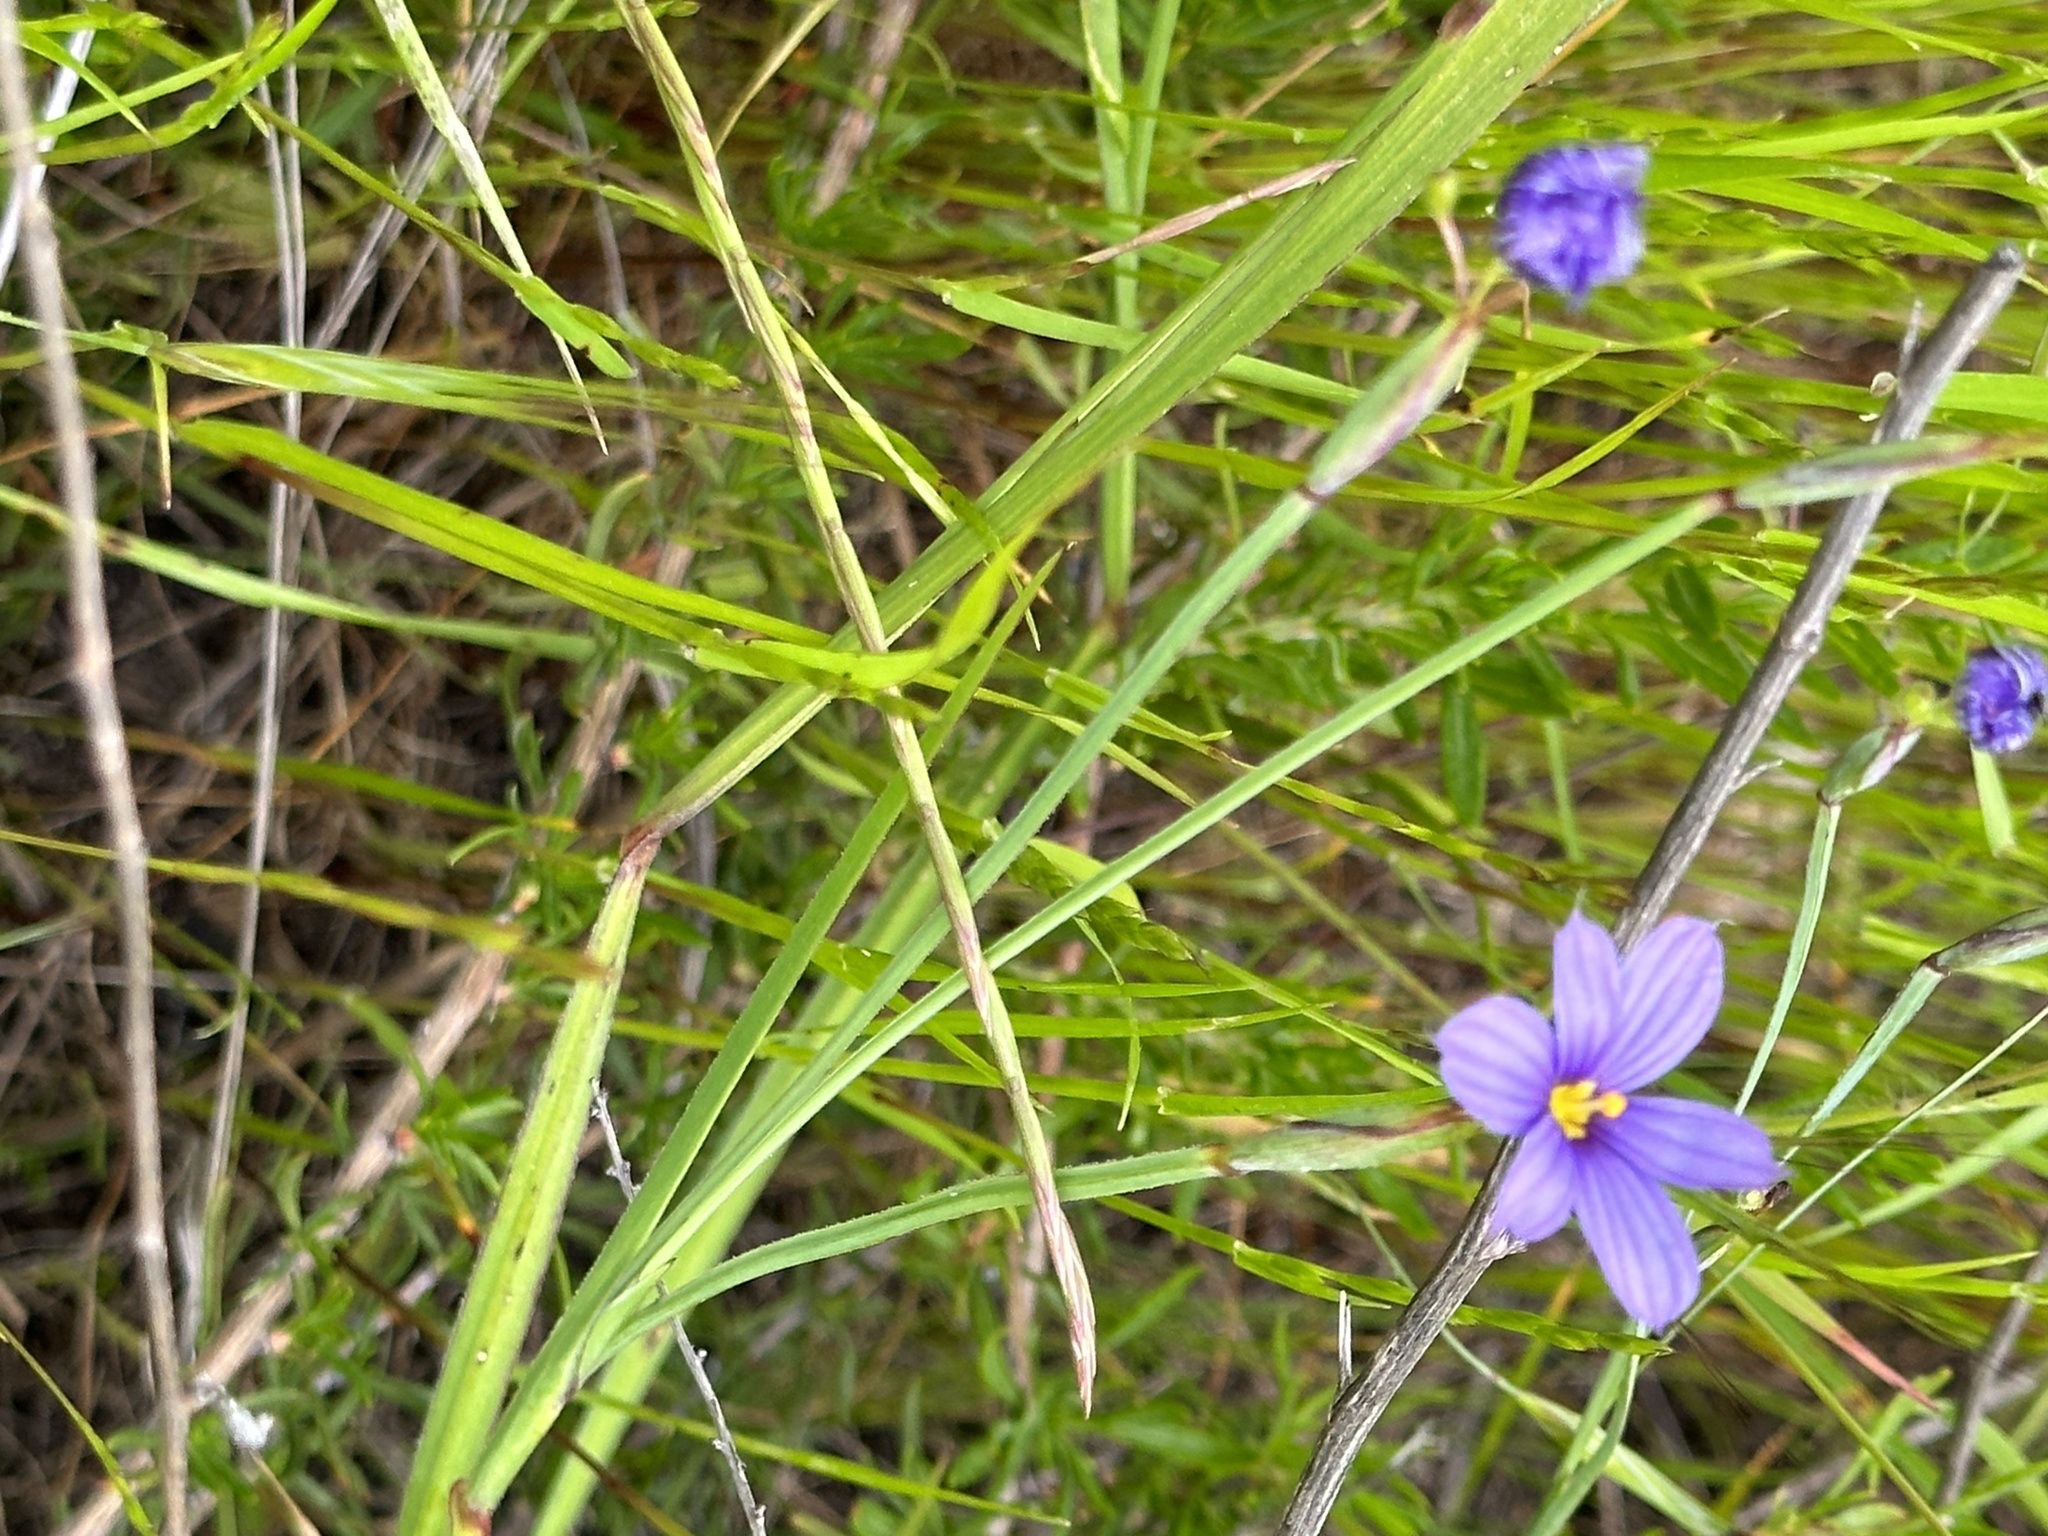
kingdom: Plantae
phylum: Tracheophyta
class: Liliopsida
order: Asparagales
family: Iridaceae
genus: Sisyrinchium
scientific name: Sisyrinchium bellum
